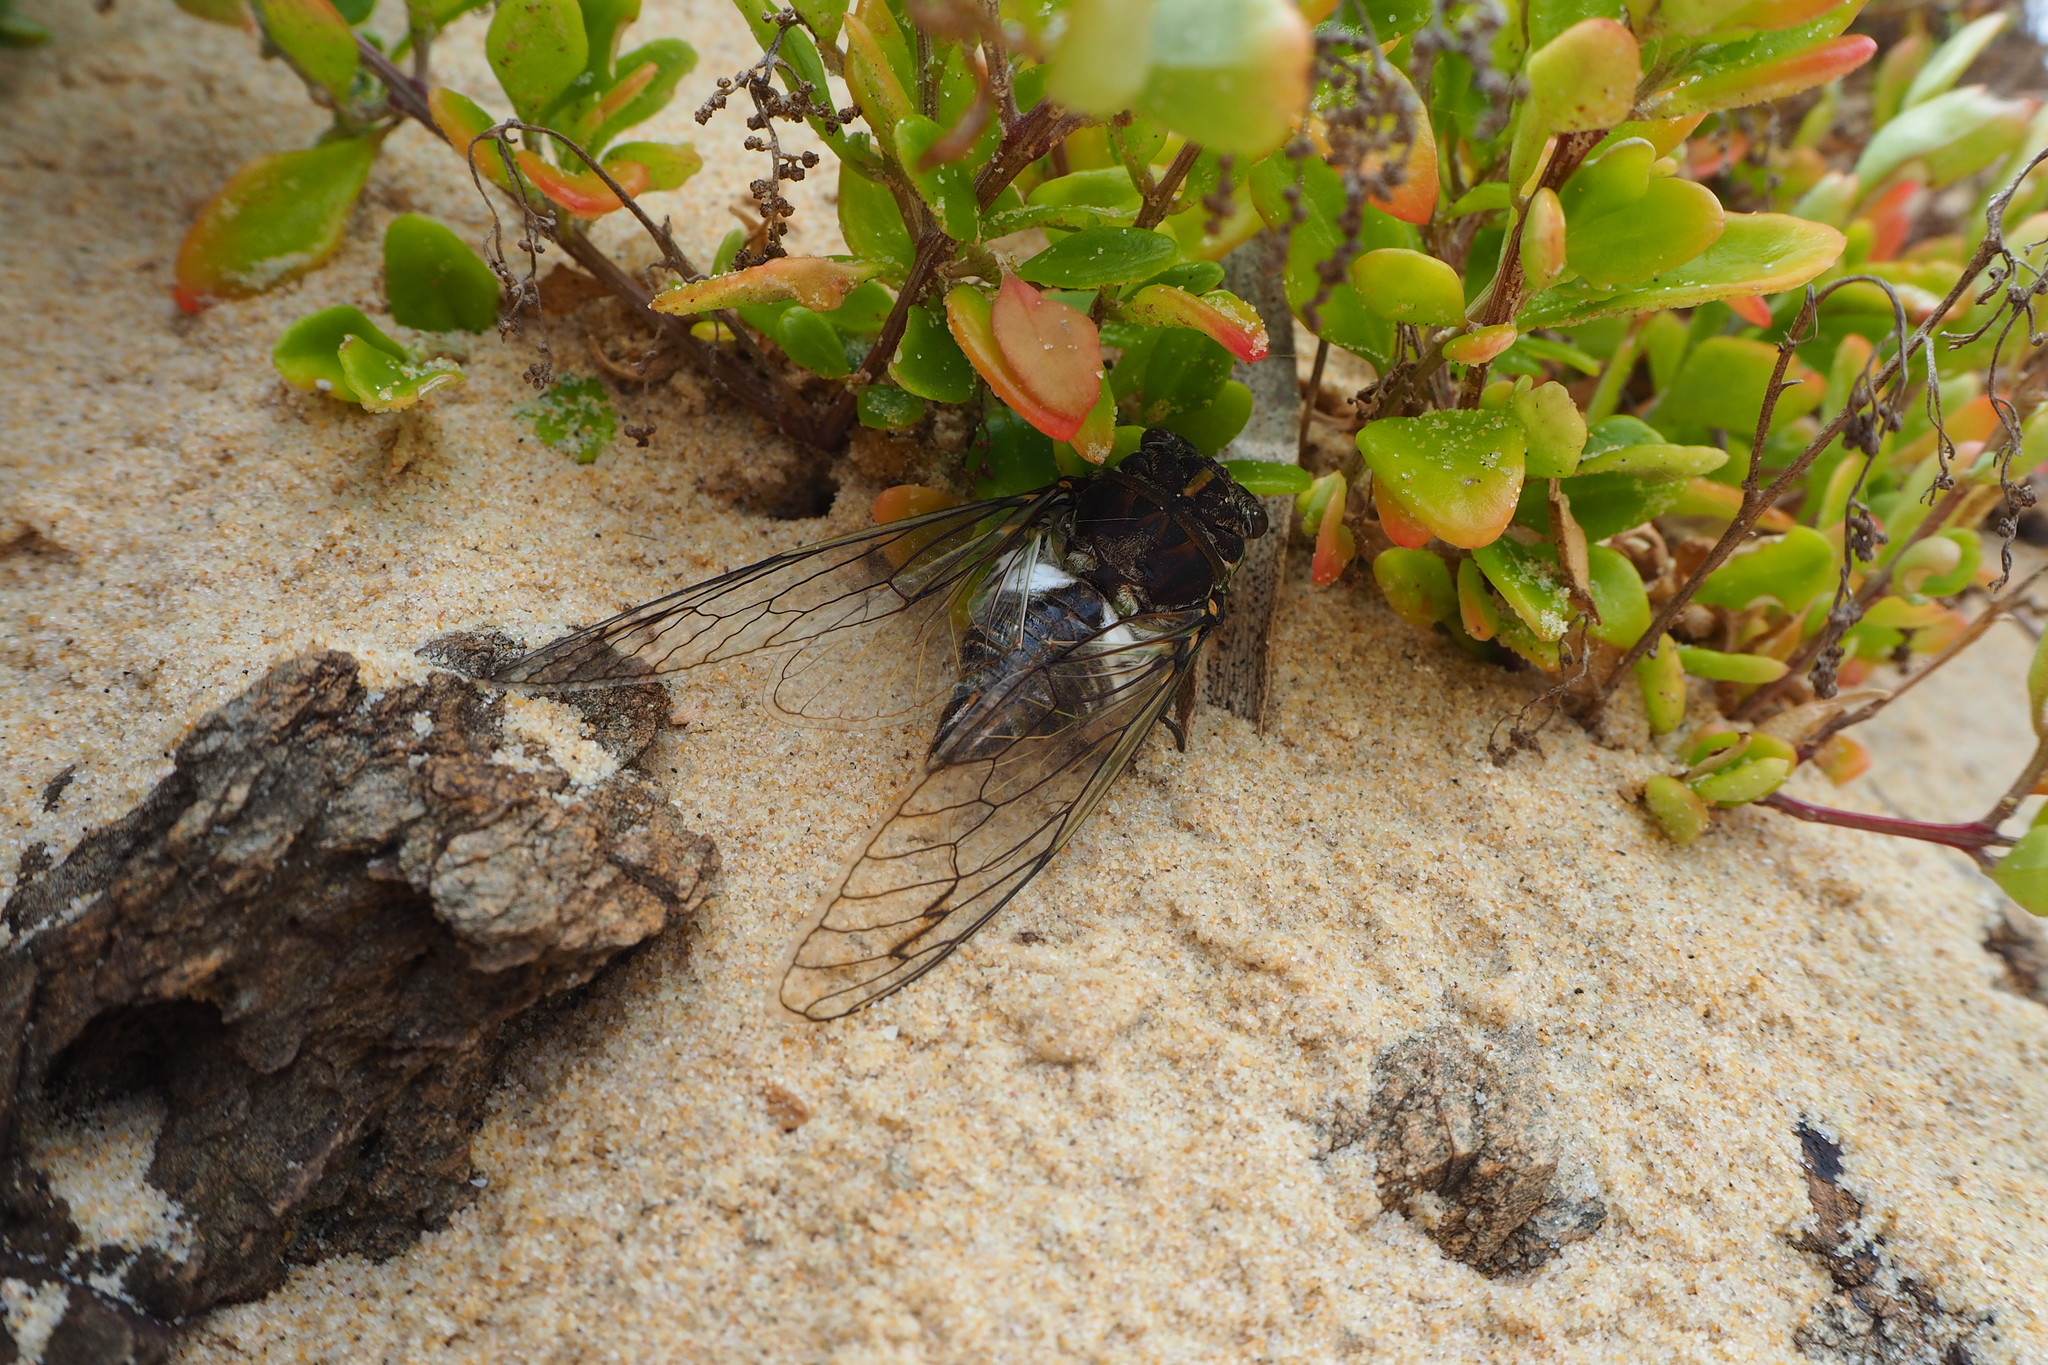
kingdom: Animalia
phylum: Arthropoda
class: Insecta
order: Hemiptera
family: Cicadidae
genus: Arunta
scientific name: Arunta perulata
